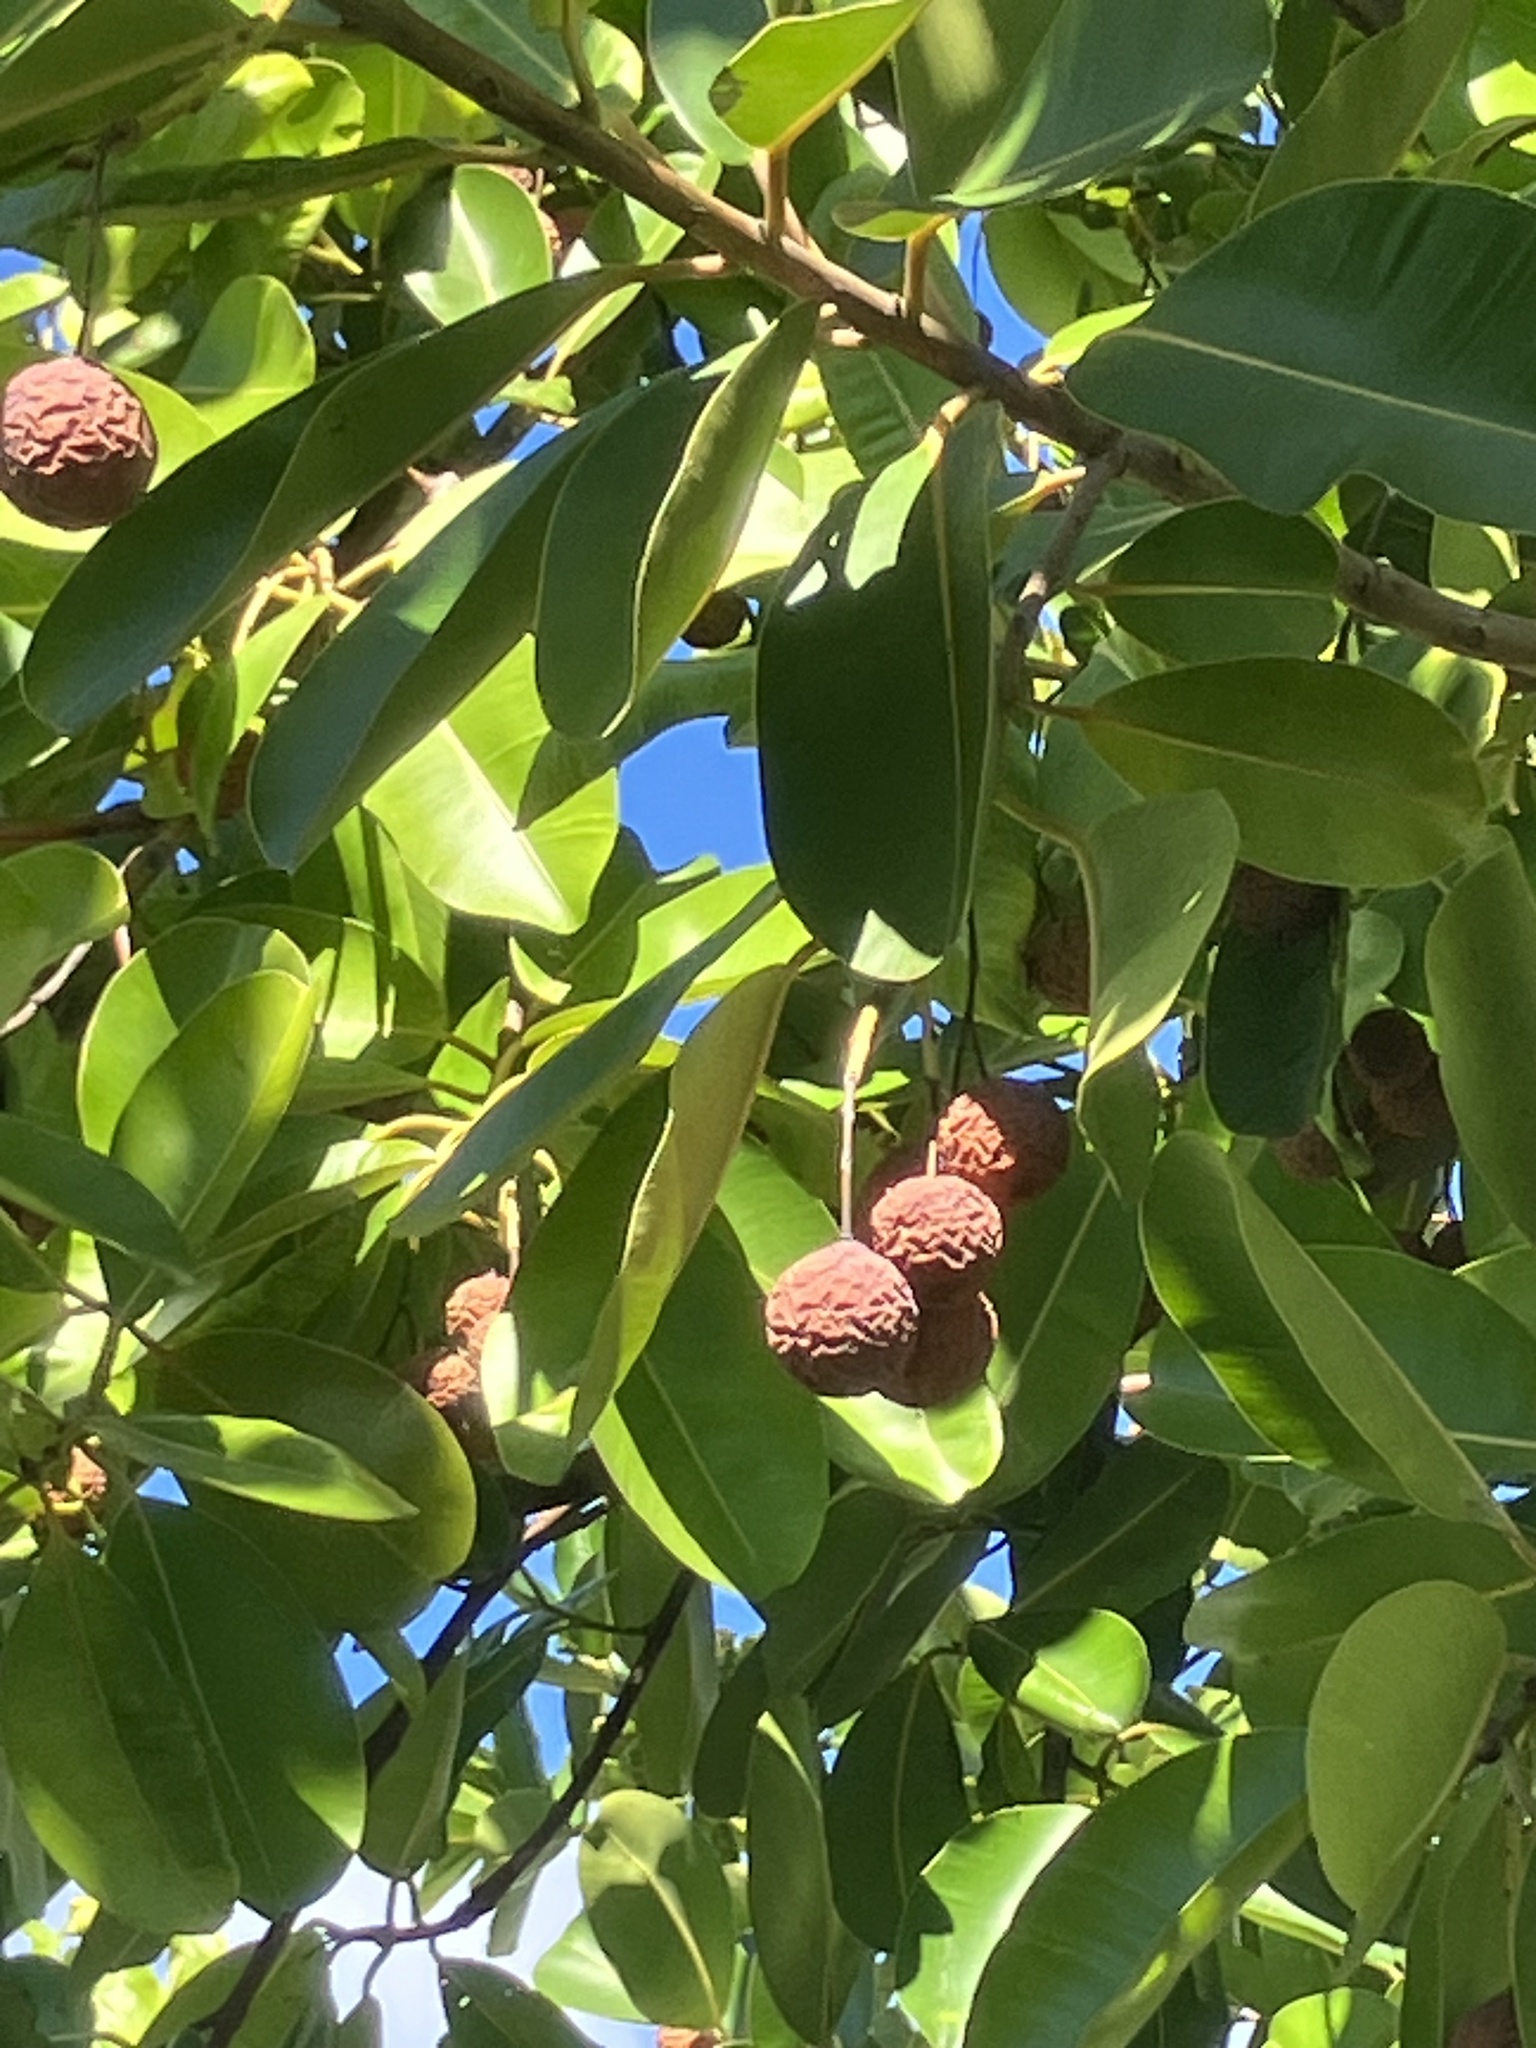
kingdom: Plantae
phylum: Tracheophyta
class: Magnoliopsida
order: Malpighiales
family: Calophyllaceae
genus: Calophyllum
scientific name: Calophyllum inophyllum
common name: Alexandrian laurel
